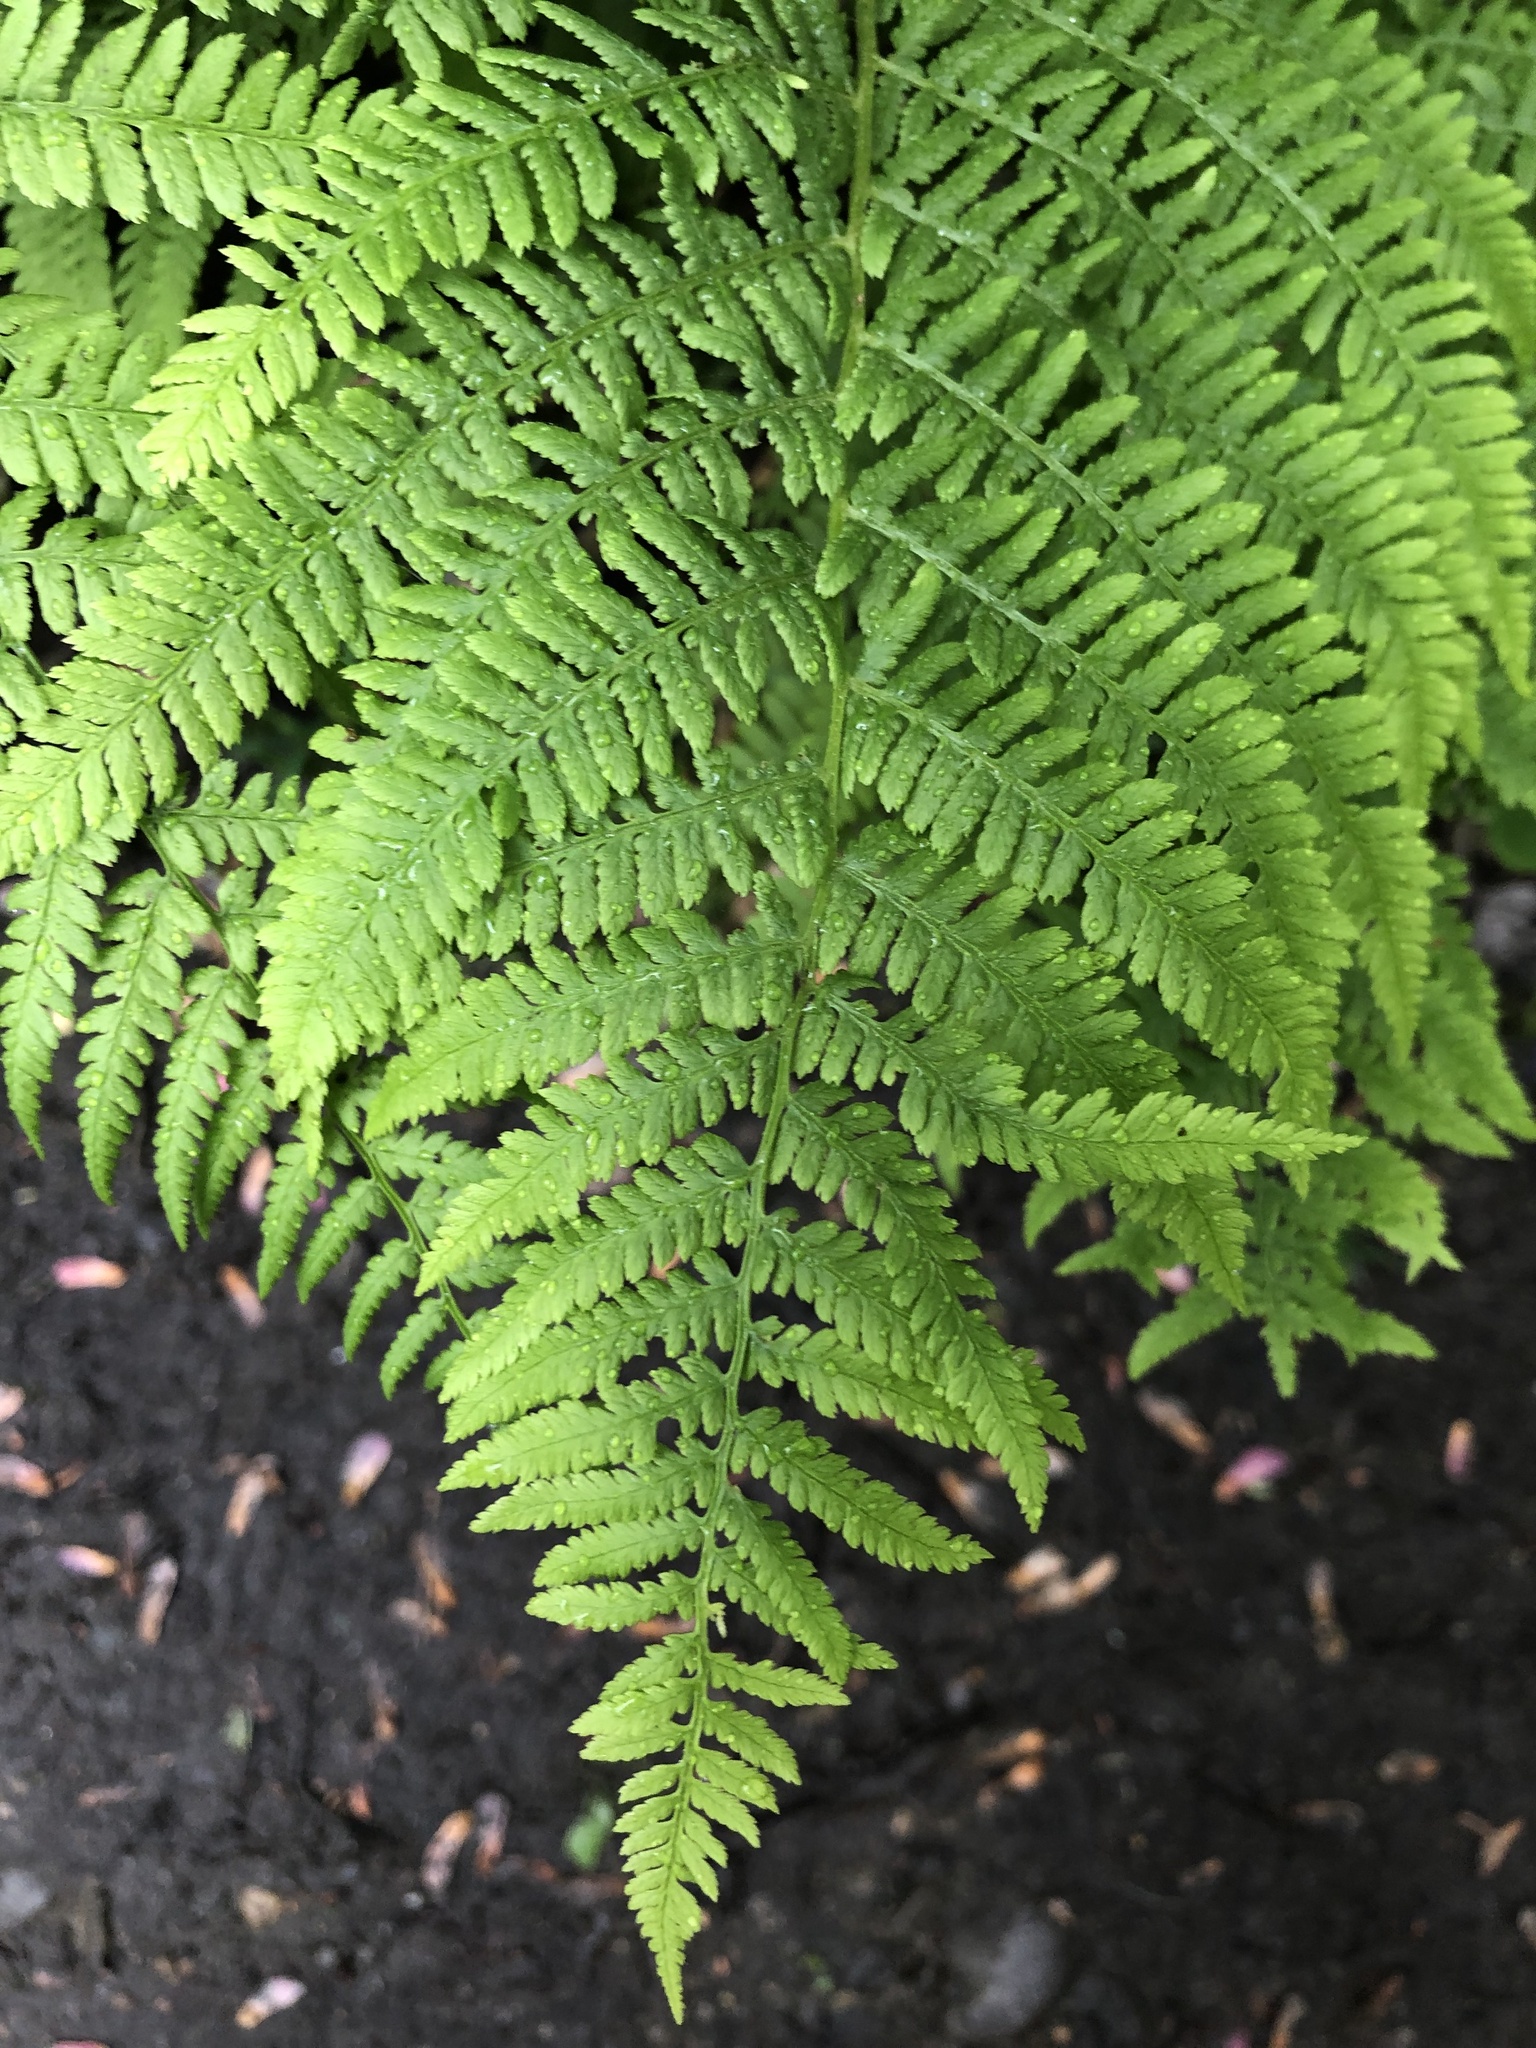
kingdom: Plantae
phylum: Tracheophyta
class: Polypodiopsida
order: Polypodiales
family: Athyriaceae
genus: Athyrium
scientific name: Athyrium angustum
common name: Northern lady fern
